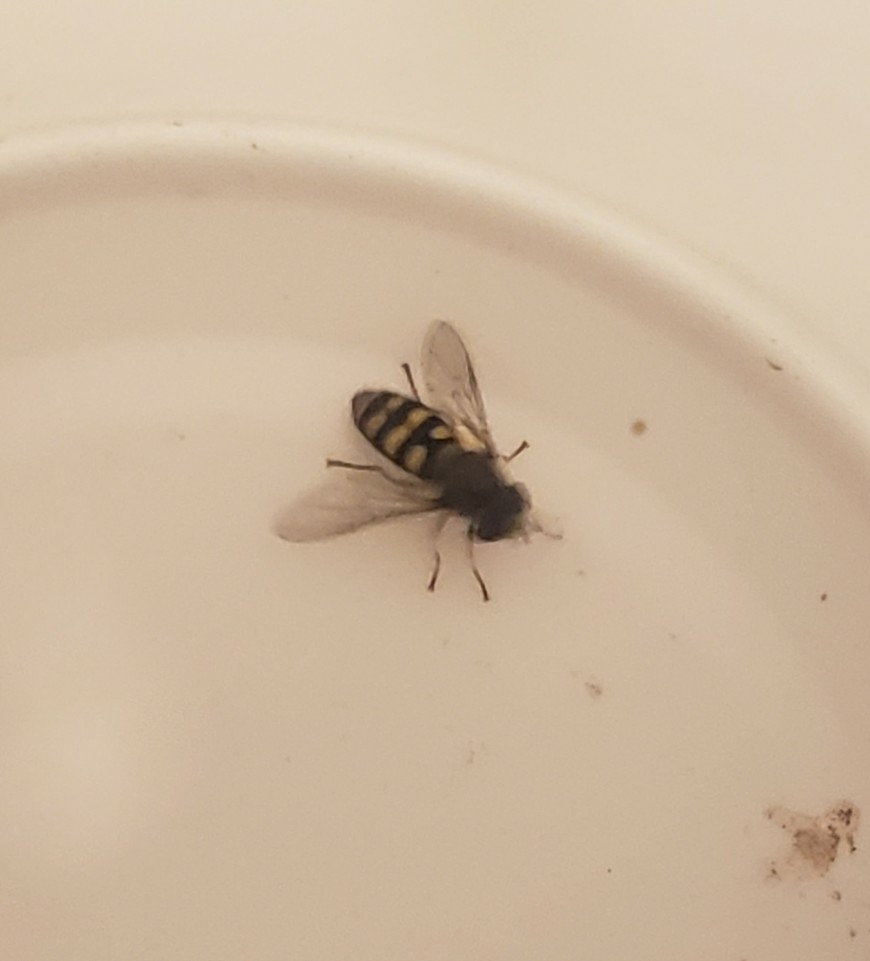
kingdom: Animalia
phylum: Arthropoda
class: Insecta
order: Diptera
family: Syrphidae
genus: Eupeodes
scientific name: Eupeodes fumipennis
